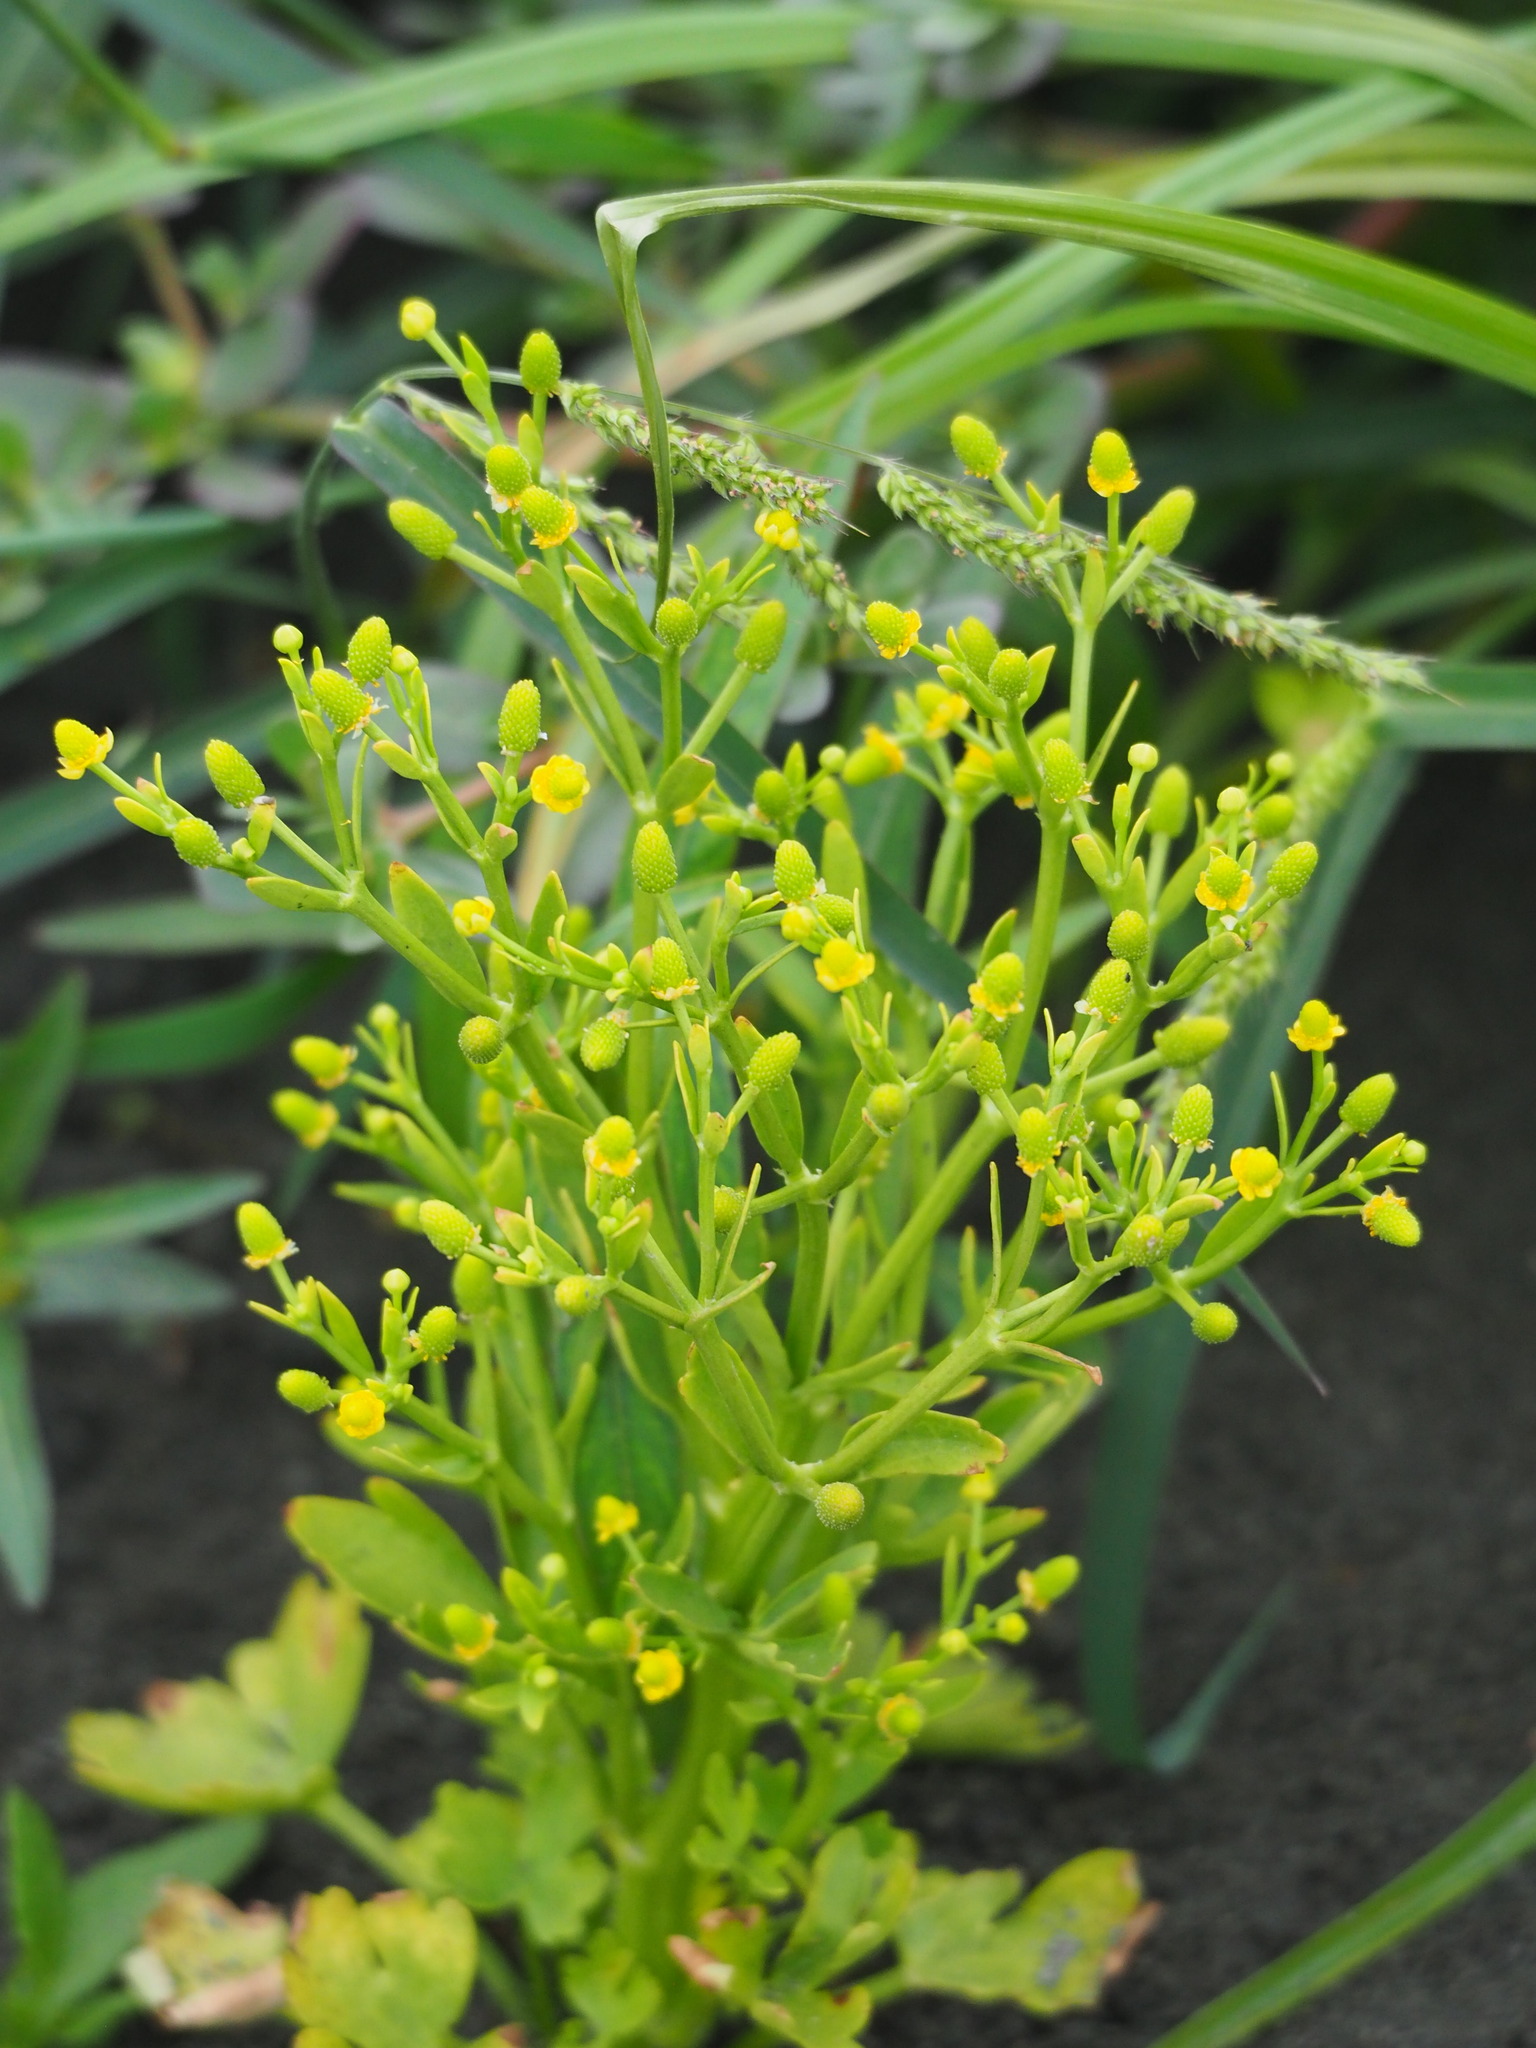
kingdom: Plantae
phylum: Tracheophyta
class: Magnoliopsida
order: Ranunculales
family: Ranunculaceae
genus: Ranunculus
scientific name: Ranunculus sceleratus
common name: Celery-leaved buttercup
